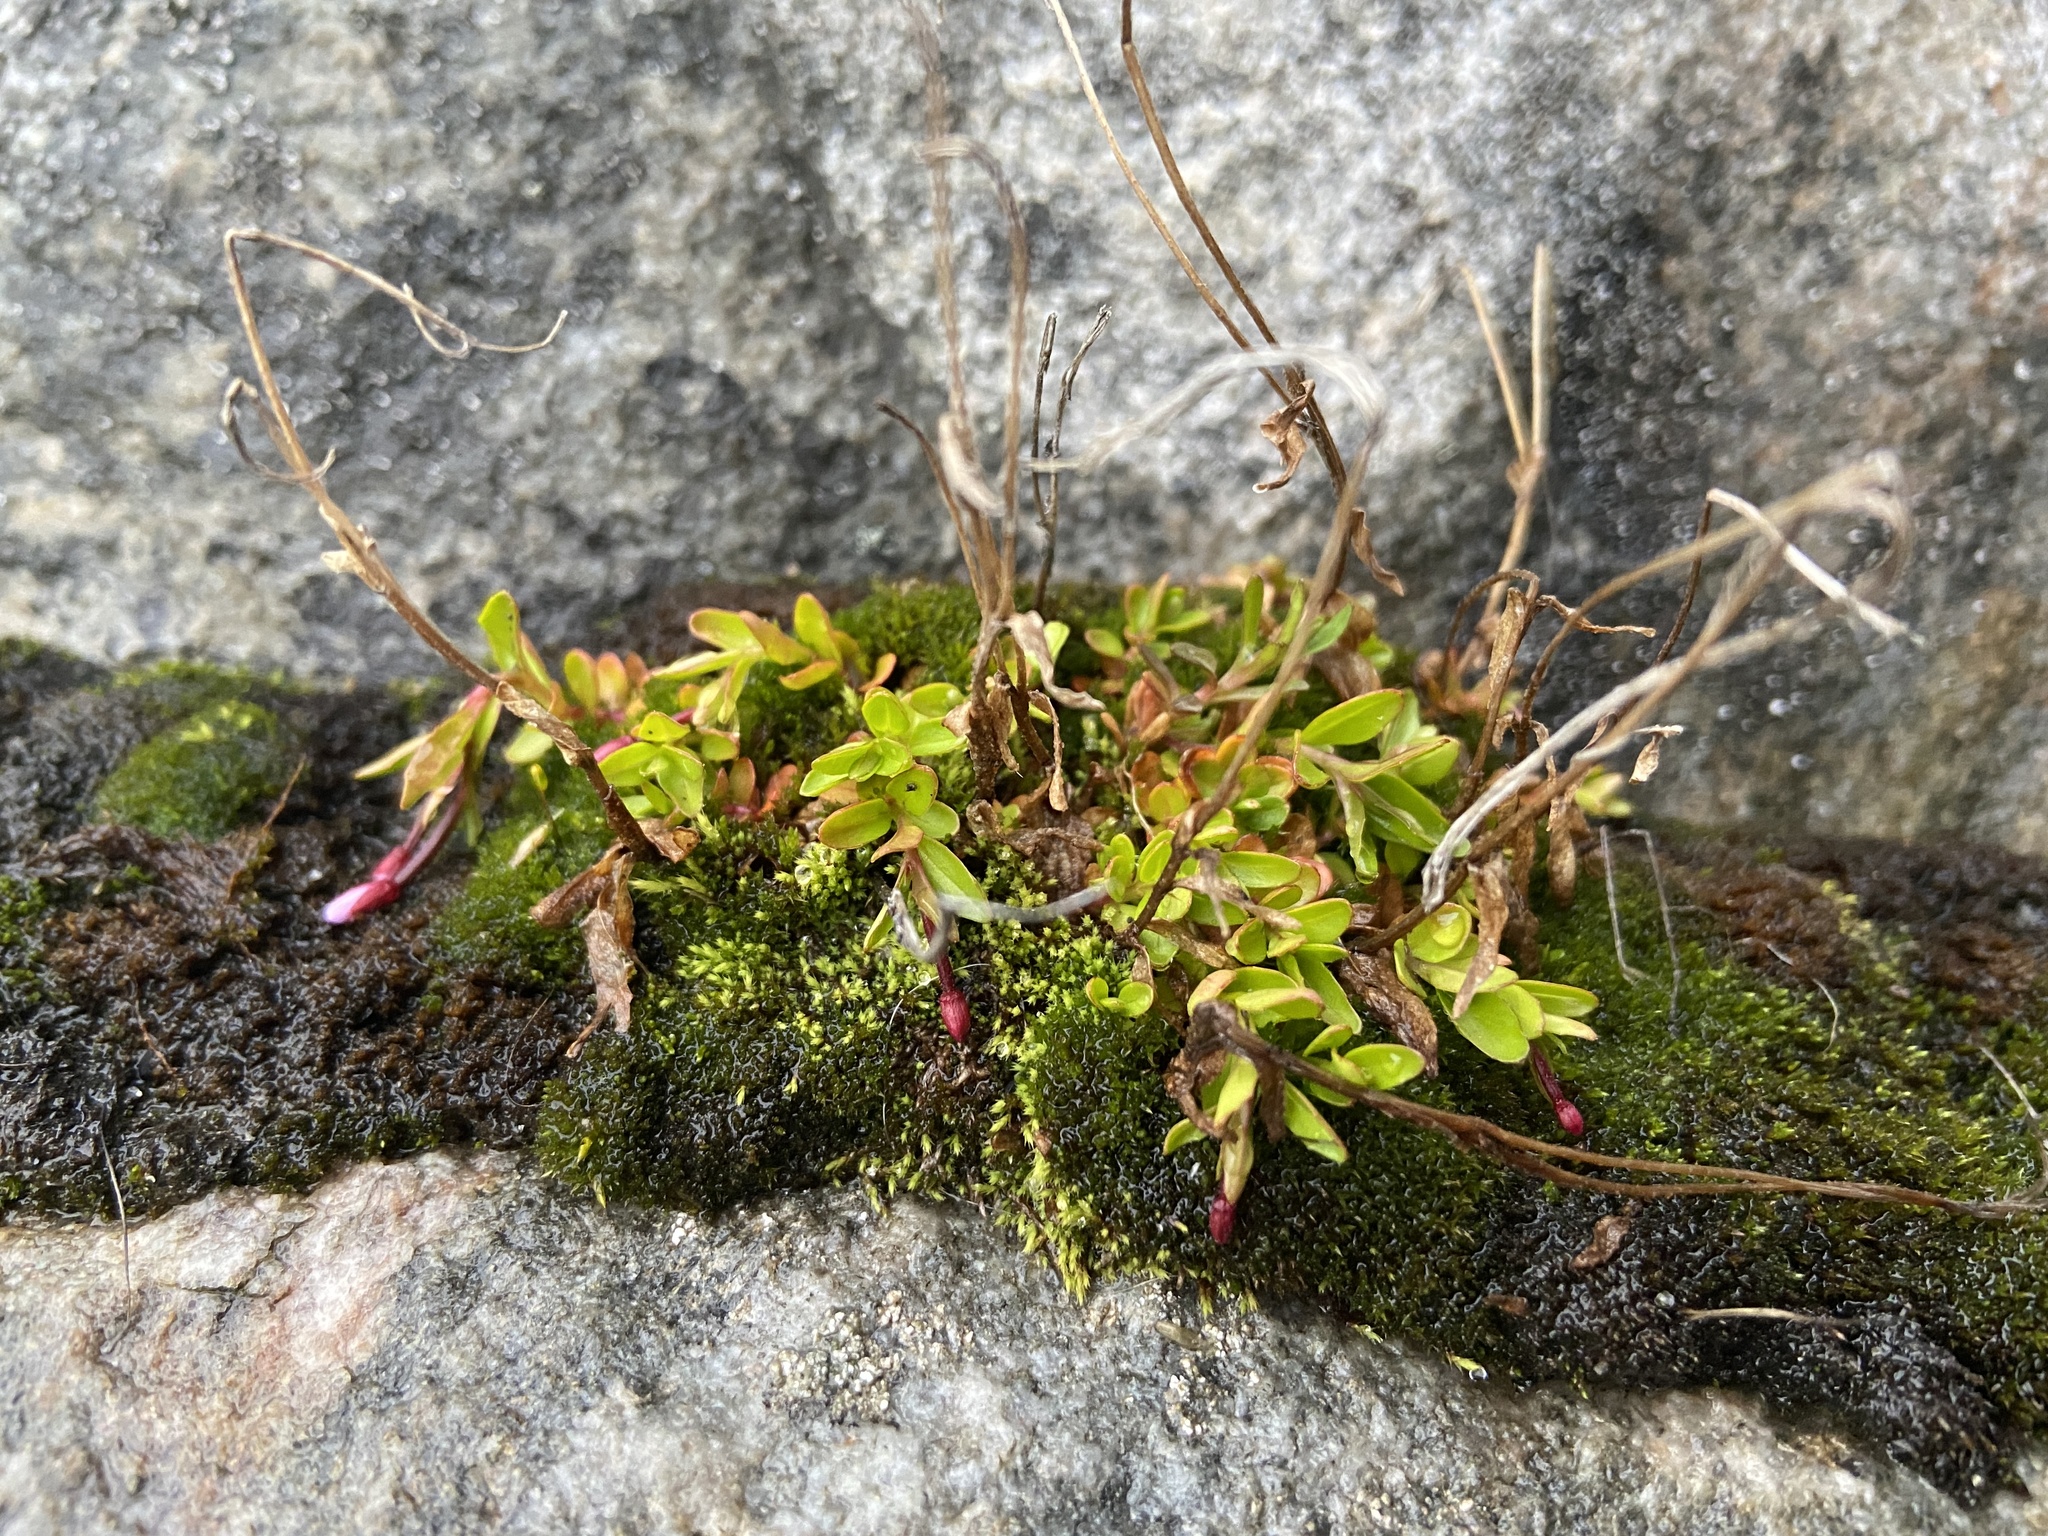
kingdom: Plantae
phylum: Tracheophyta
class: Magnoliopsida
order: Myrtales
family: Onagraceae
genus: Epilobium
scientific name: Epilobium anagallidifolium
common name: Alpine willowherb
